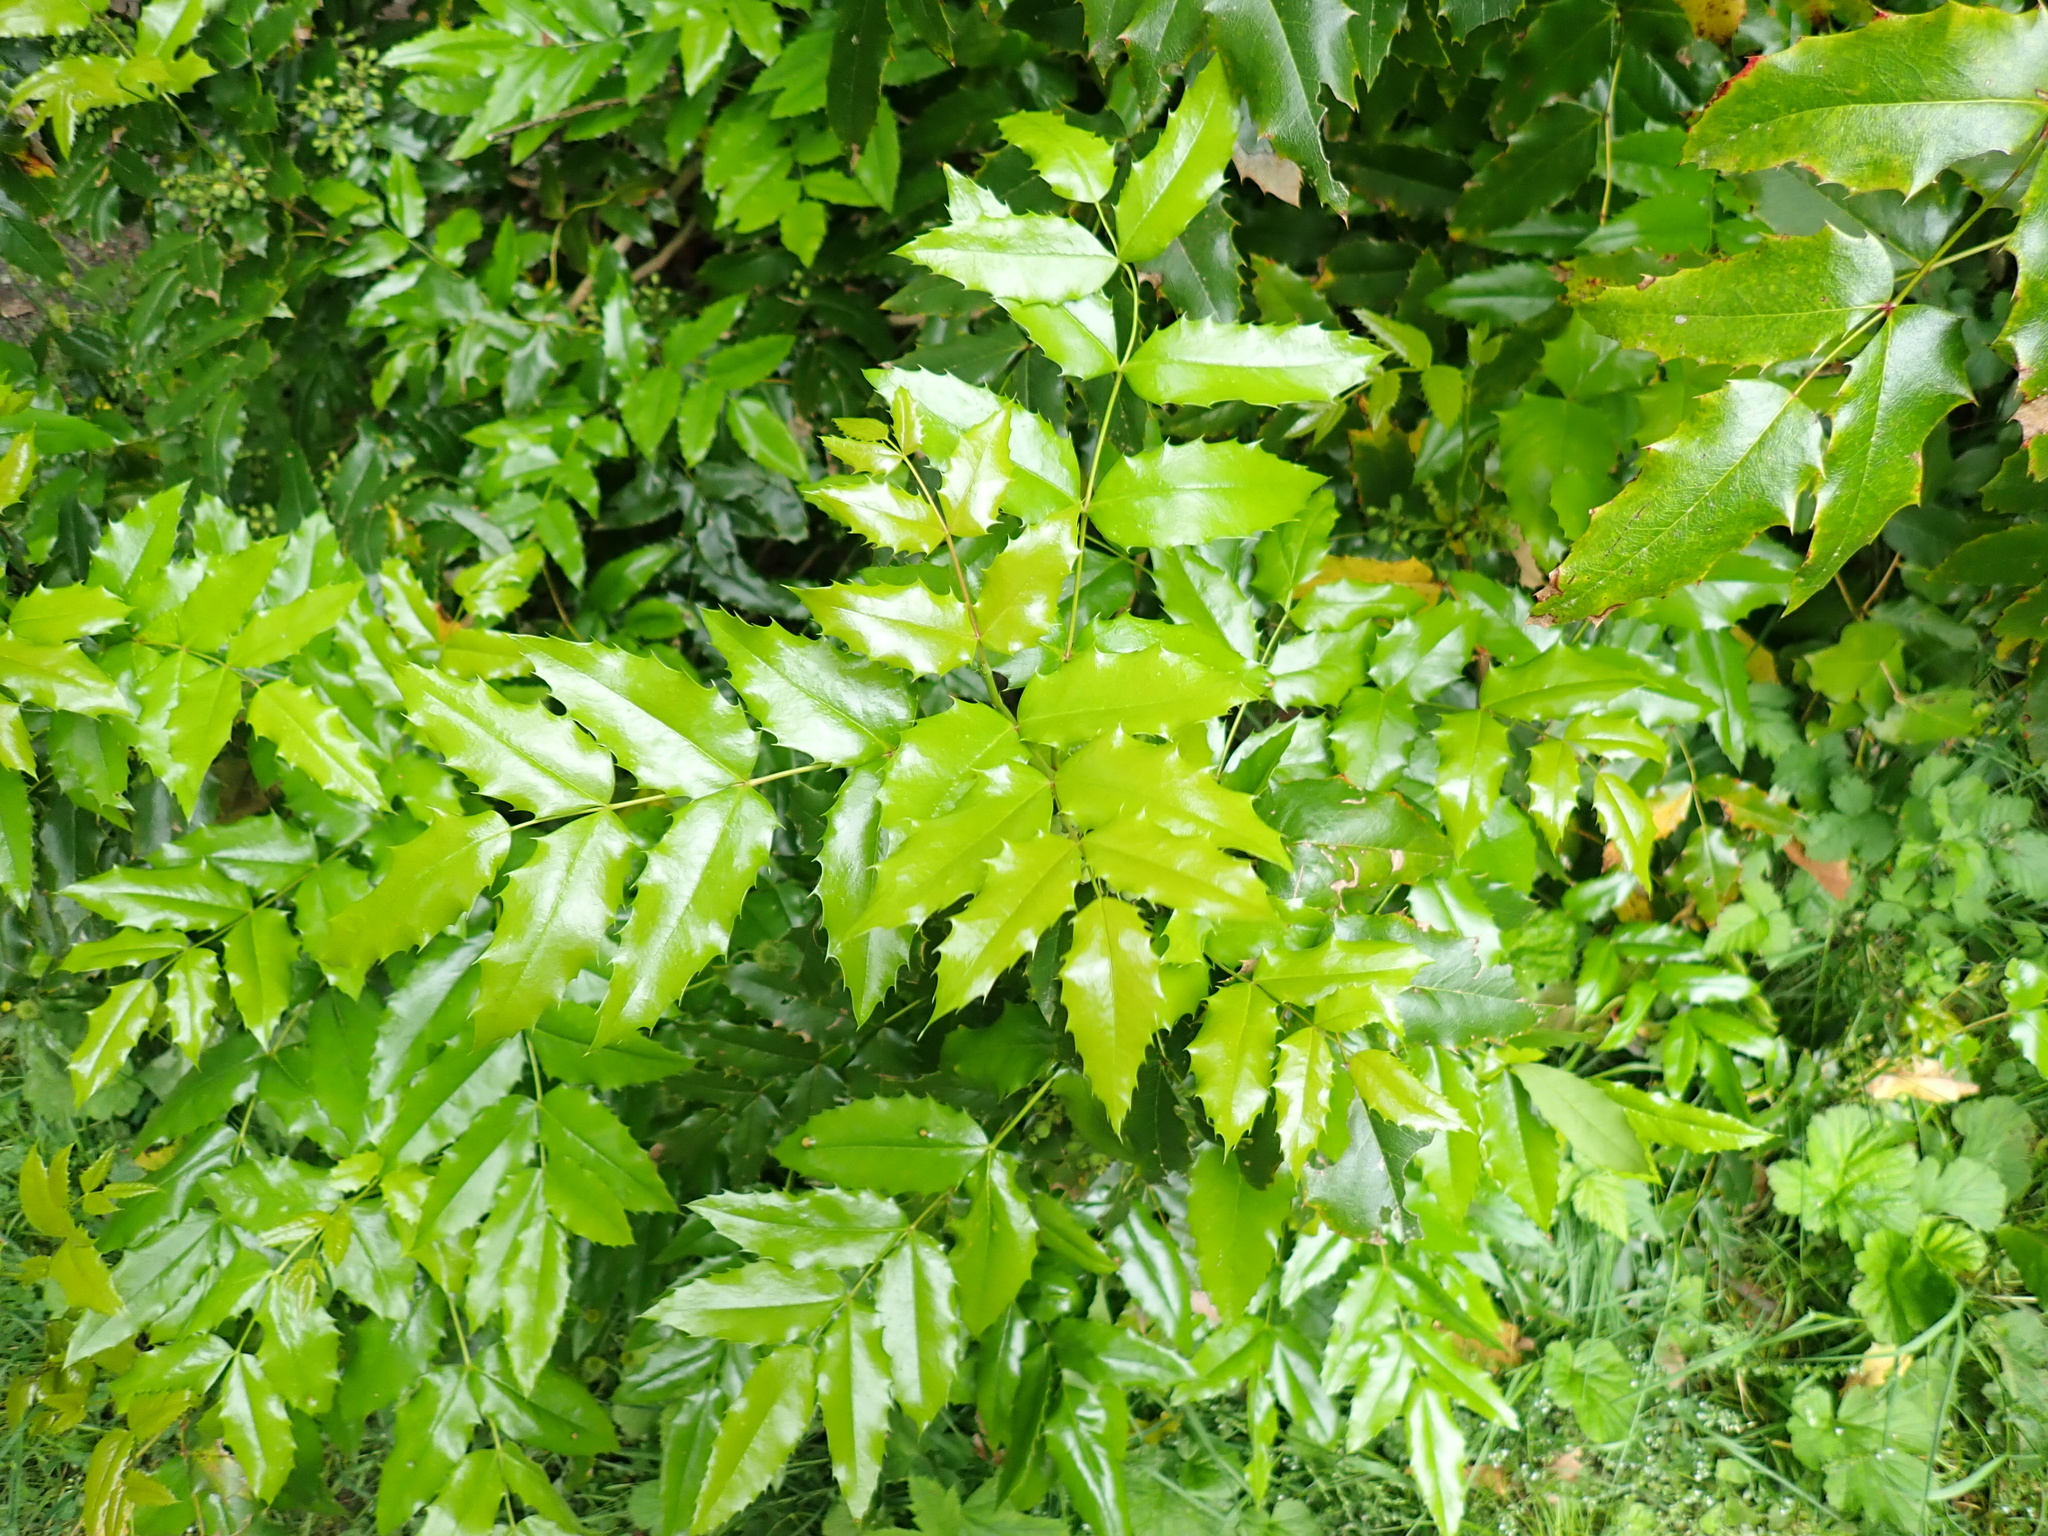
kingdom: Plantae
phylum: Tracheophyta
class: Magnoliopsida
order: Ranunculales
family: Berberidaceae
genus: Mahonia
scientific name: Mahonia aquifolium
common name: Oregon-grape
